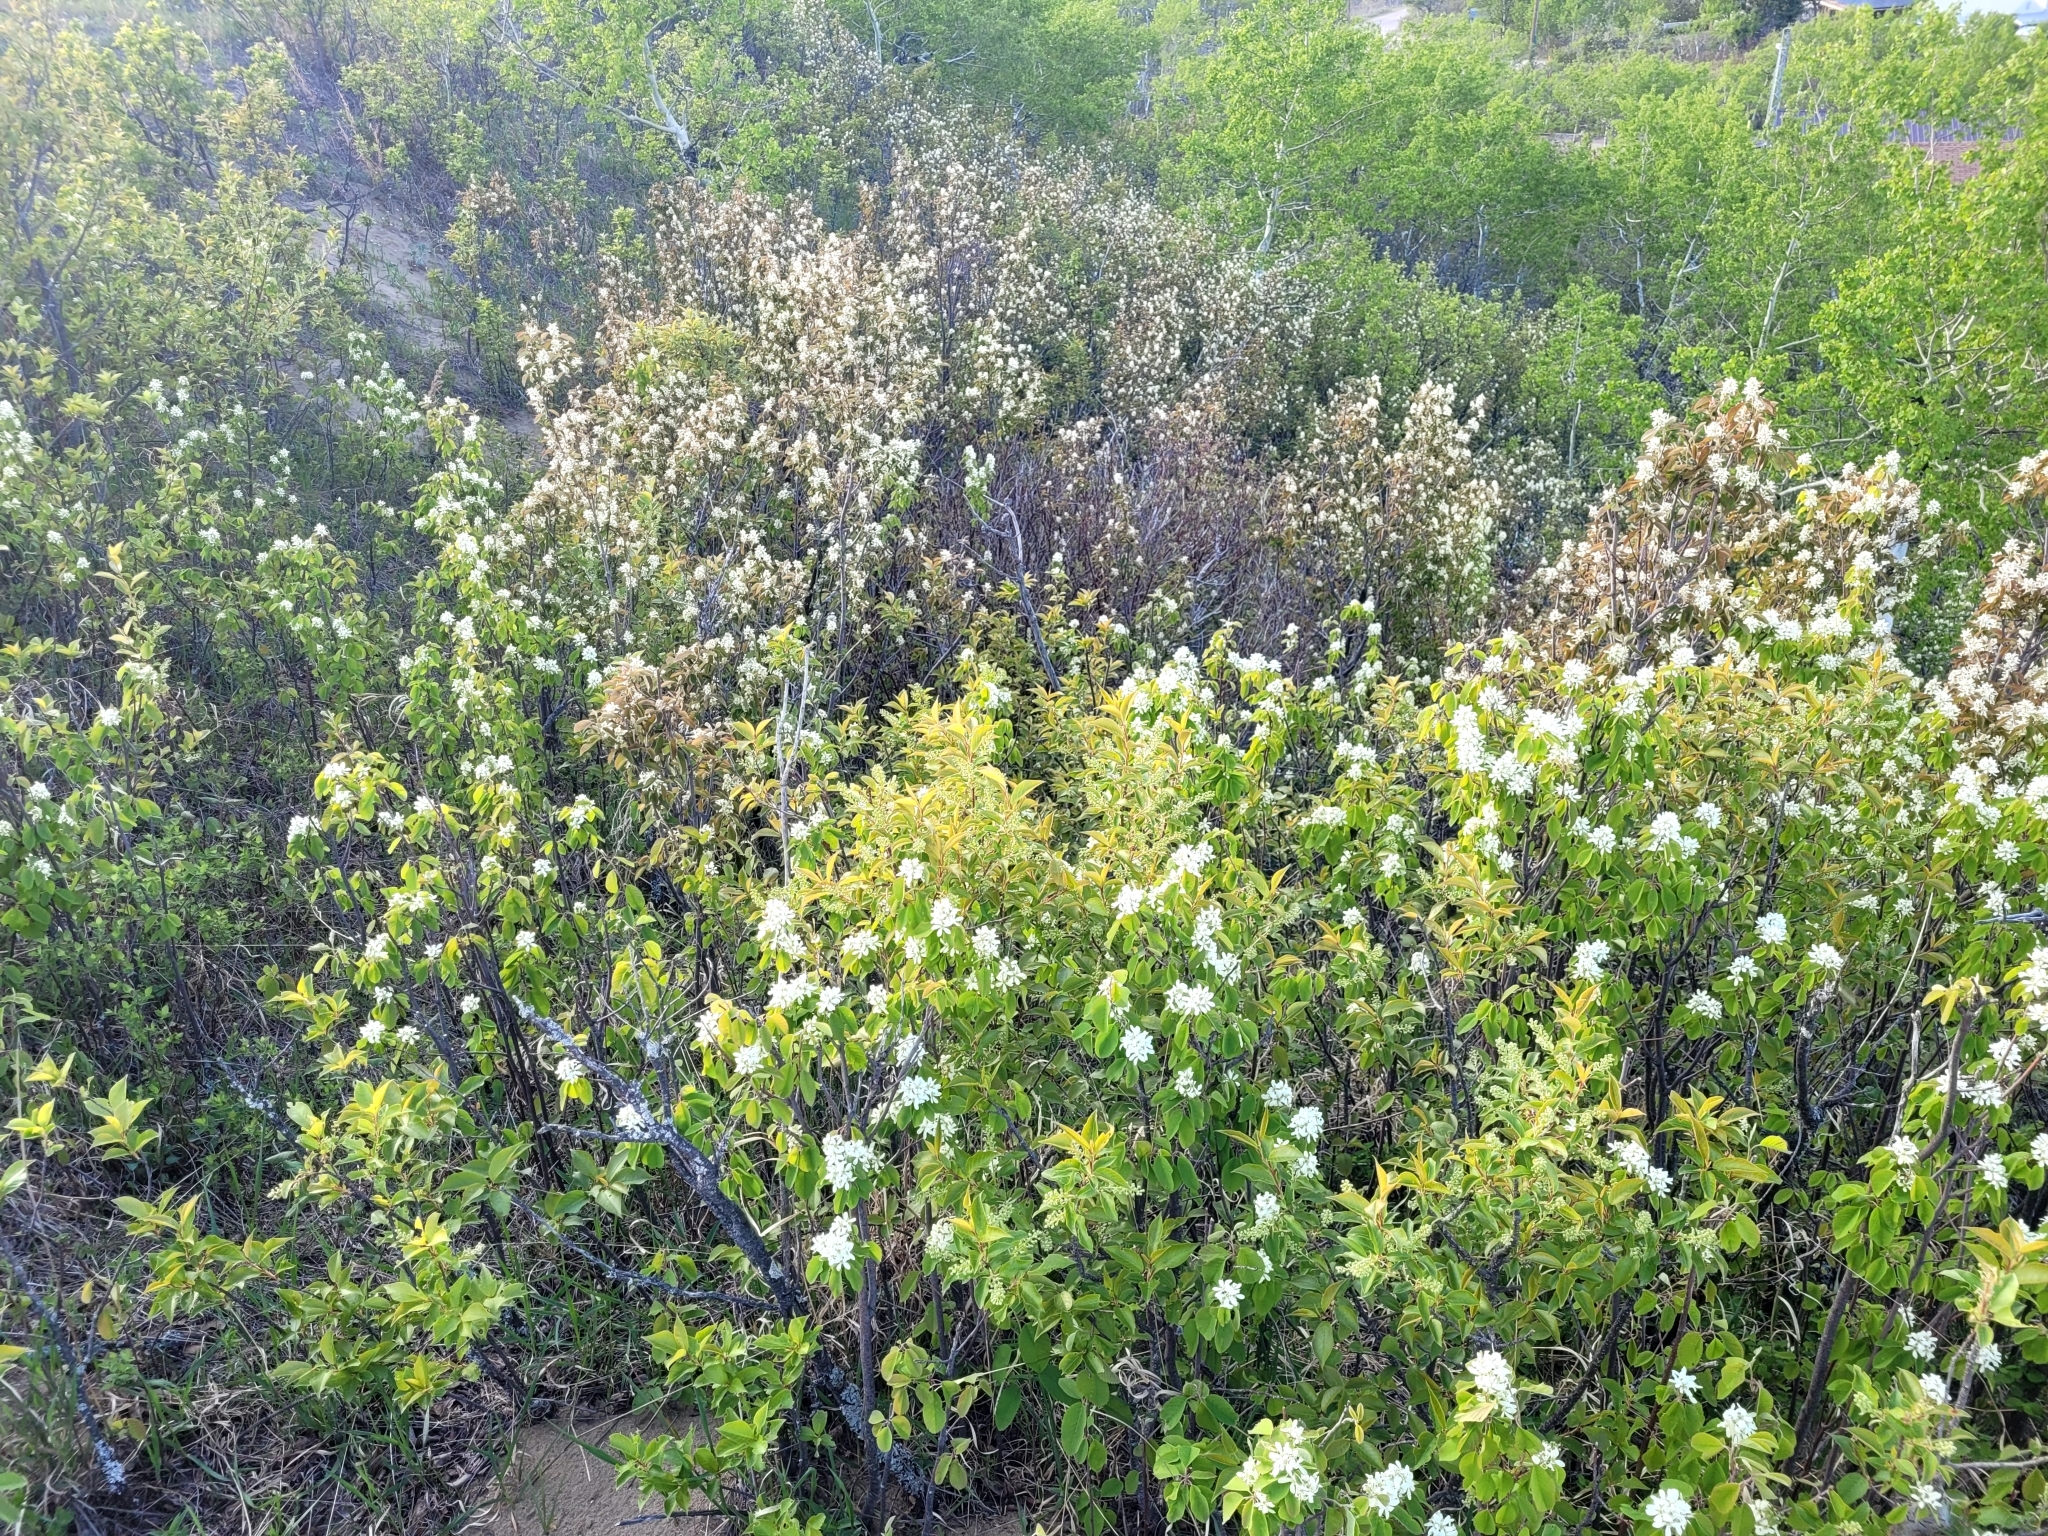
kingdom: Plantae
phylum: Tracheophyta
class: Magnoliopsida
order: Rosales
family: Rosaceae
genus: Amelanchier
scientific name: Amelanchier alnifolia
